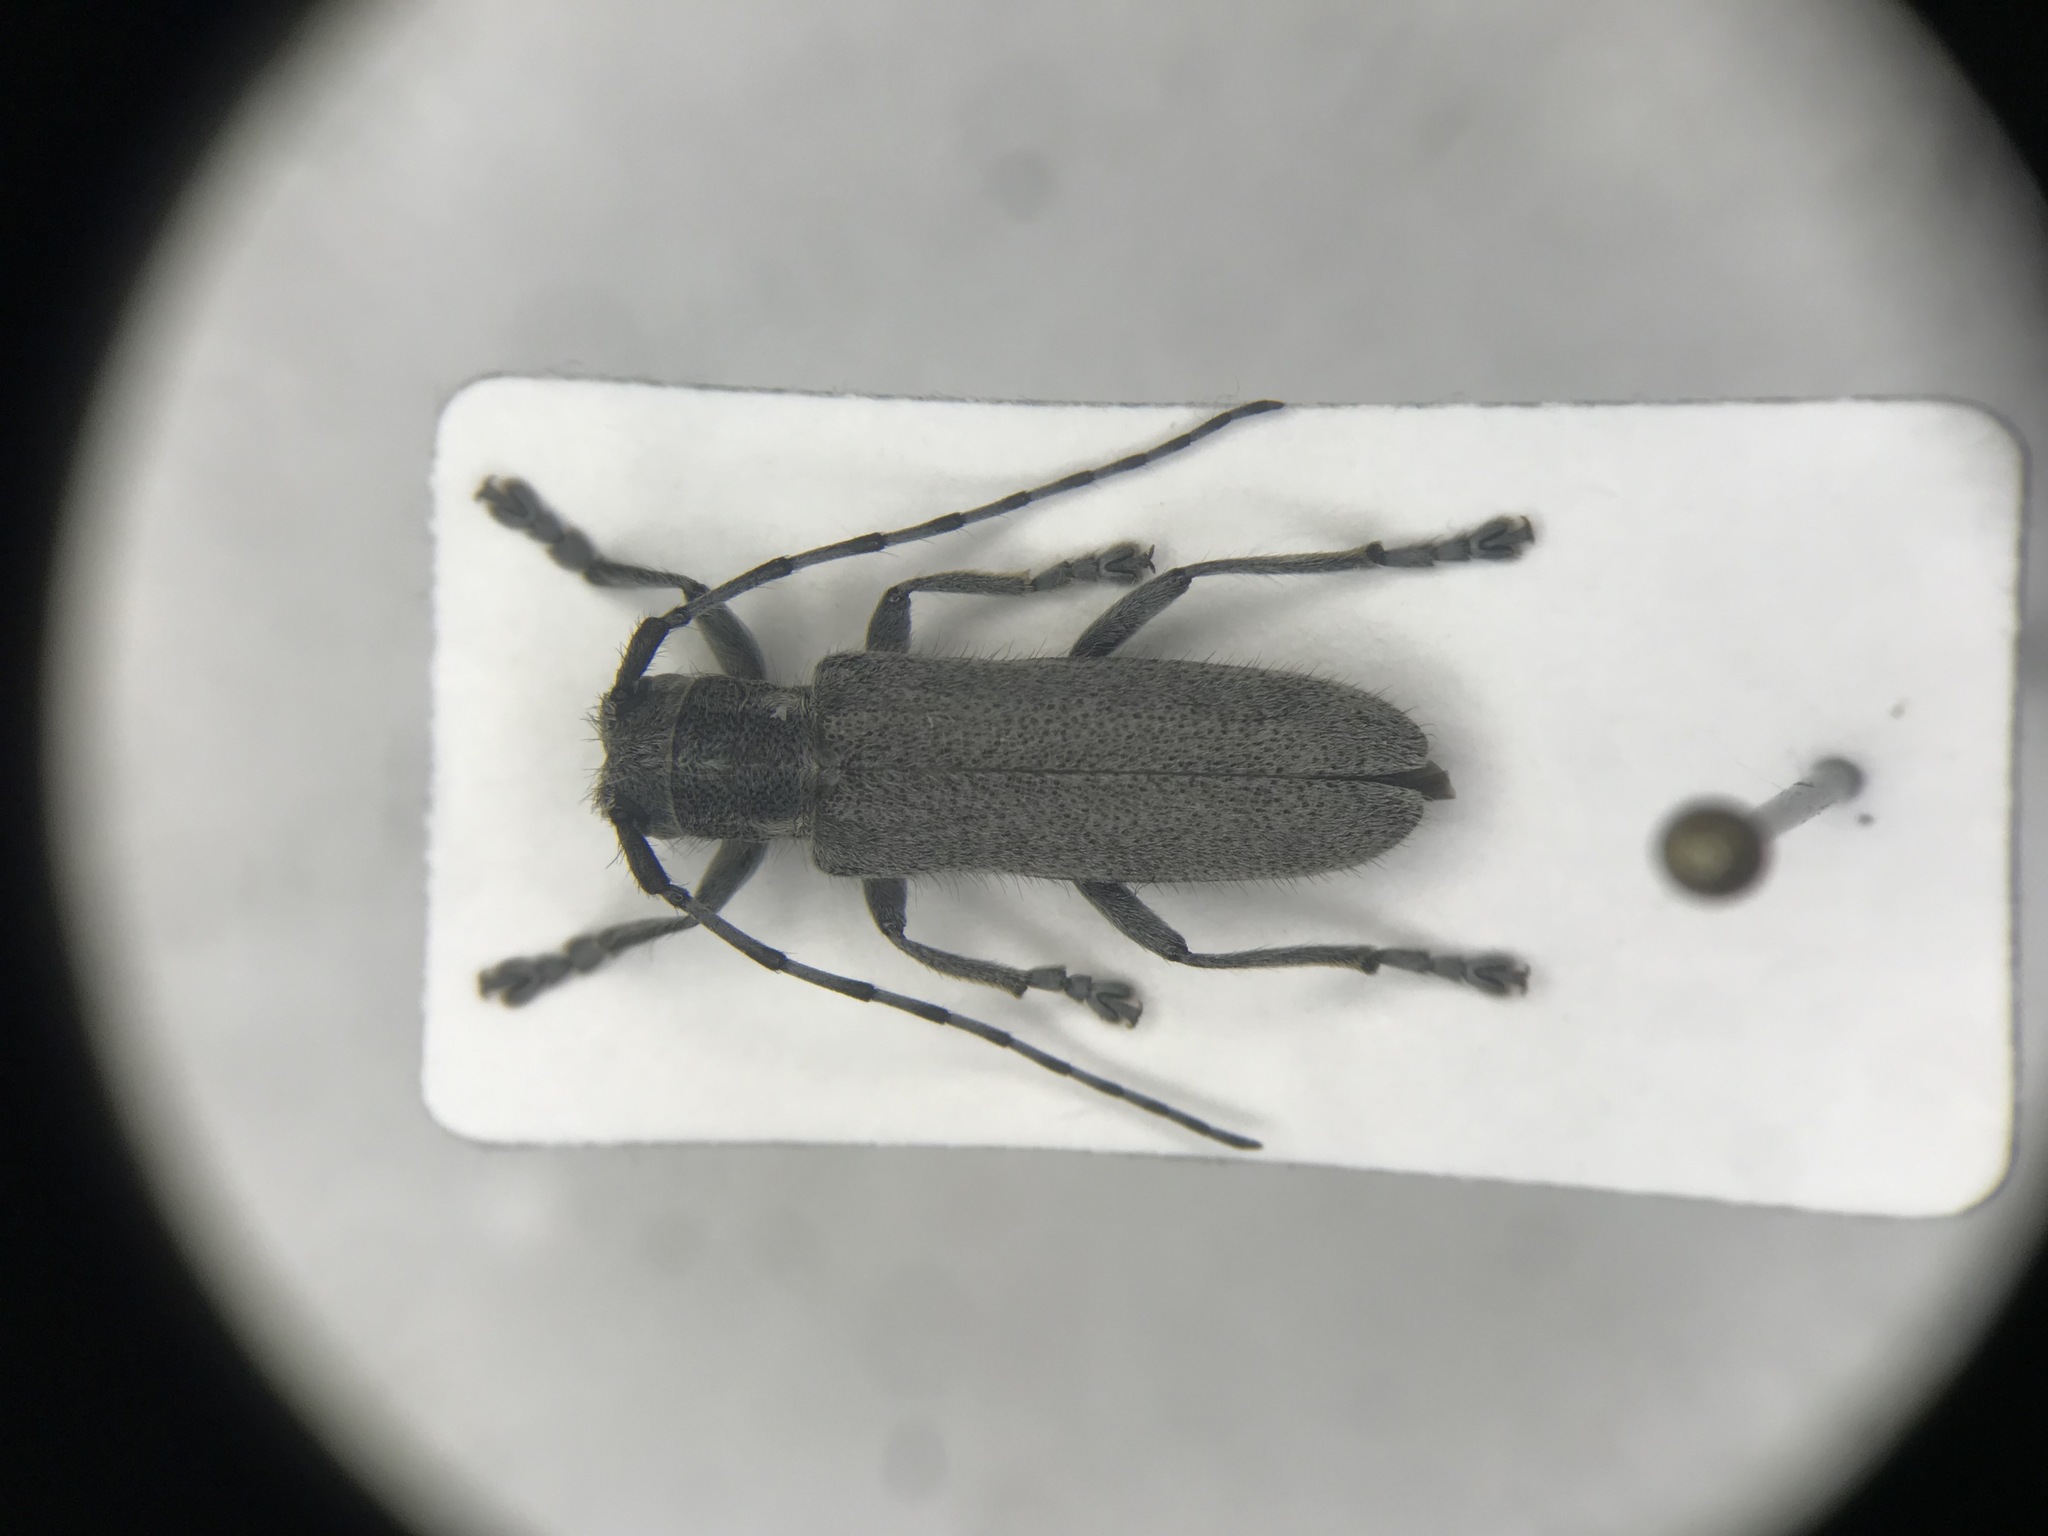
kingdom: Animalia
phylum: Arthropoda
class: Insecta
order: Coleoptera
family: Cerambycidae
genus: Saperda
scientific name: Saperda inornata
